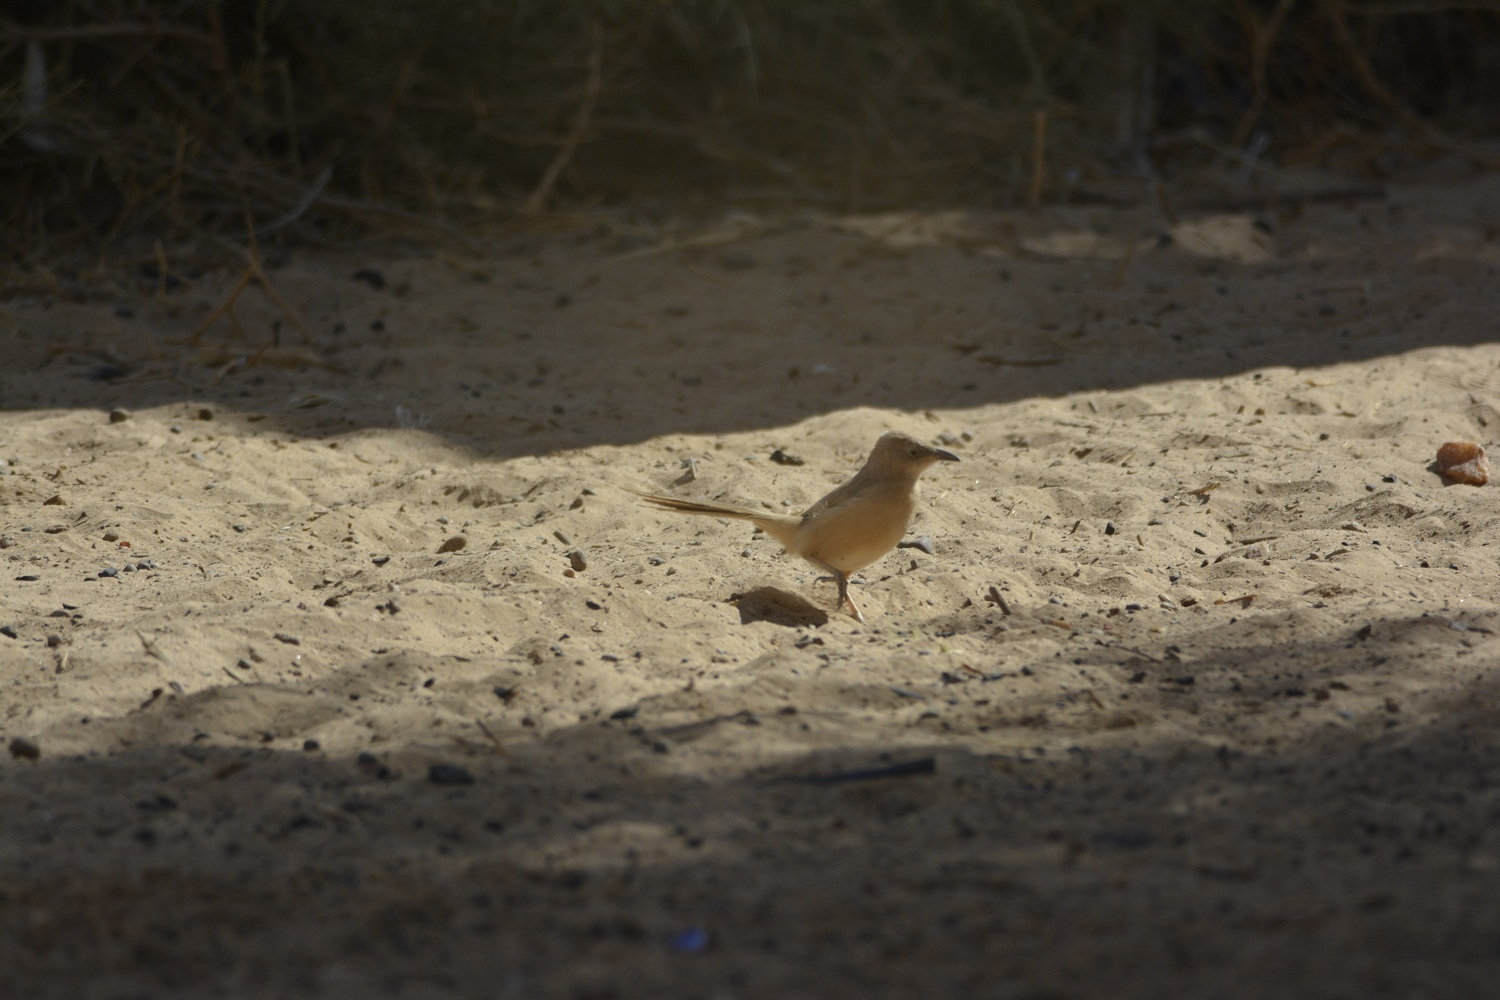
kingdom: Animalia
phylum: Chordata
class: Aves
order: Passeriformes
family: Leiothrichidae
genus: Turdoides
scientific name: Turdoides fulva
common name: Fulvous babbler
